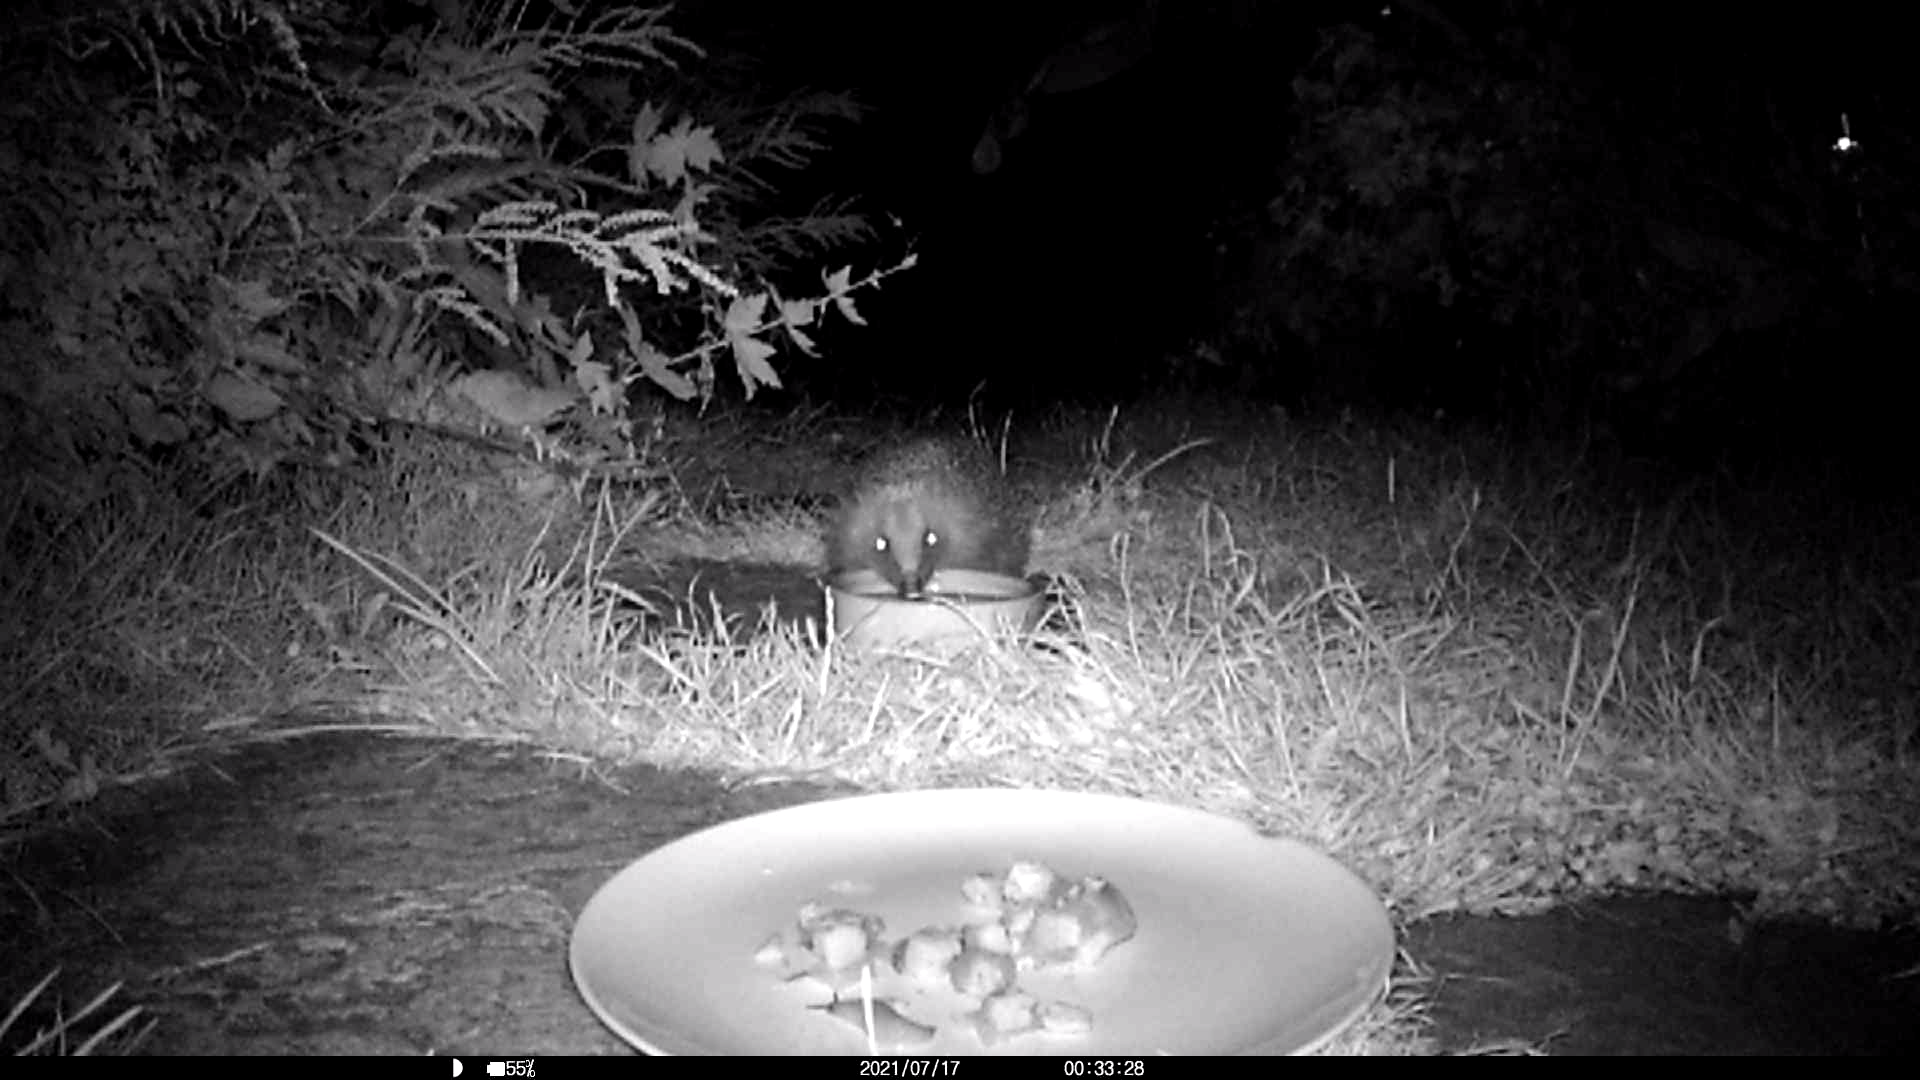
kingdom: Animalia
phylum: Chordata
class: Mammalia
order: Erinaceomorpha
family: Erinaceidae
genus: Erinaceus
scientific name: Erinaceus europaeus
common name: West european hedgehog
